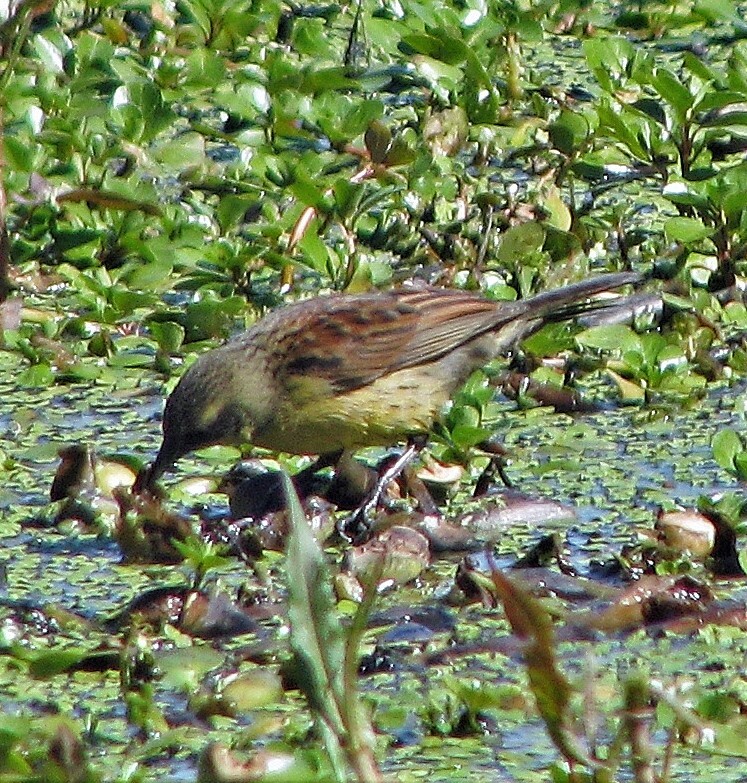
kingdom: Animalia
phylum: Chordata
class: Aves
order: Passeriformes
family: Icteridae
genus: Agelasticus
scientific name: Agelasticus cyanopus
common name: Unicolored blackbird
